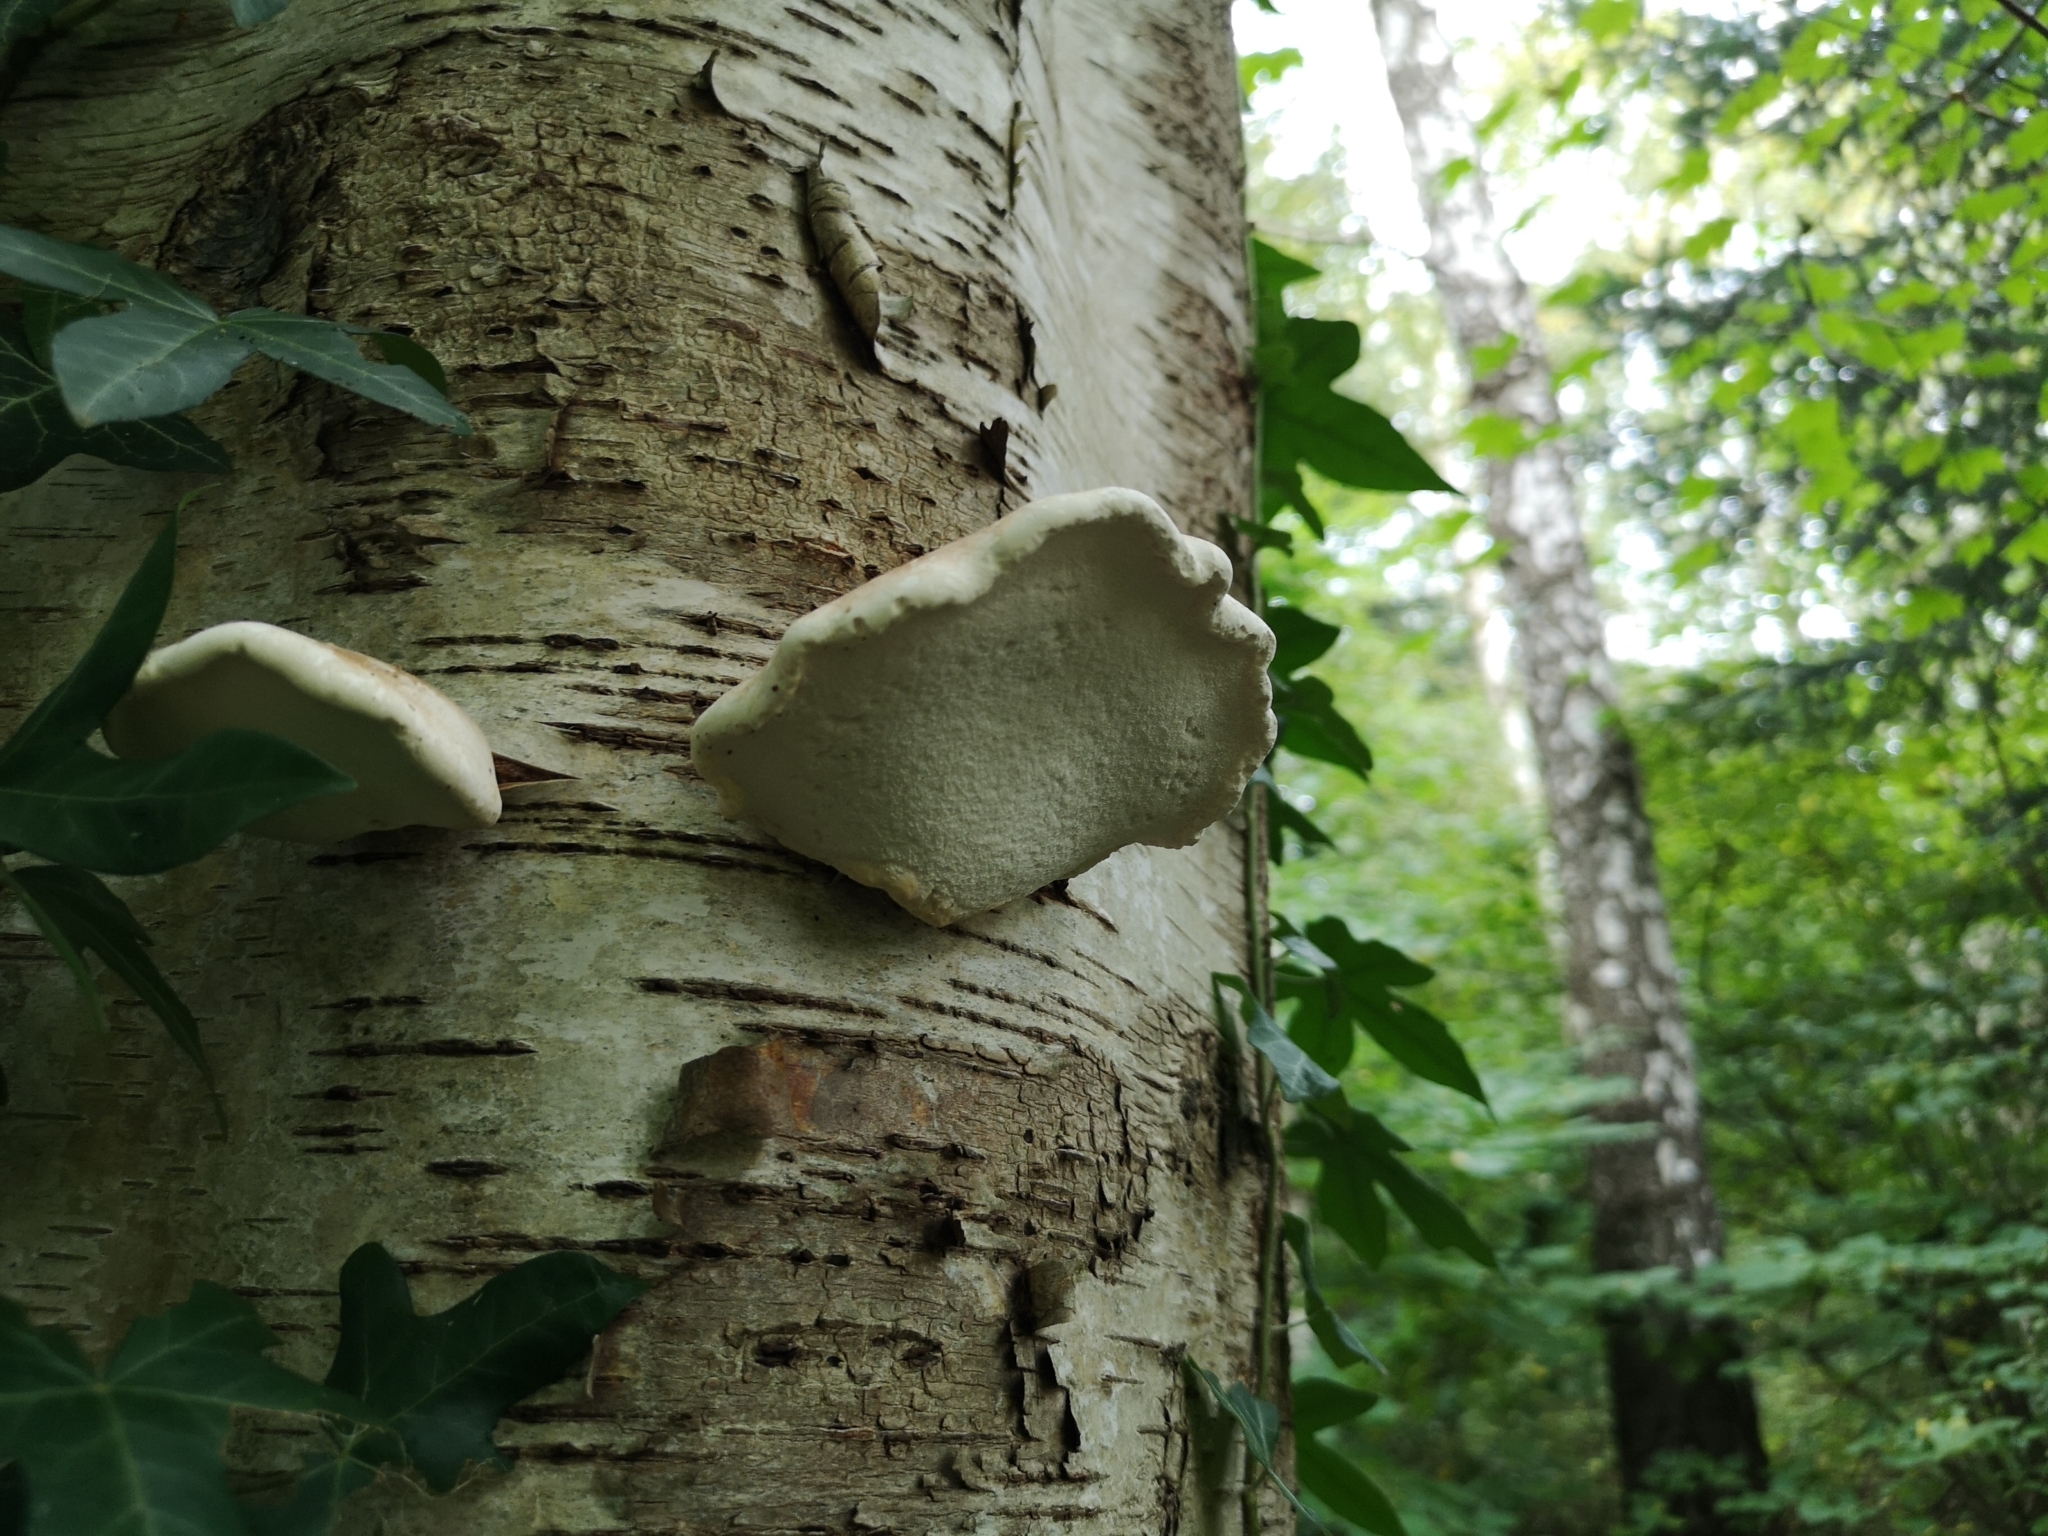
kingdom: Fungi
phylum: Basidiomycota
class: Agaricomycetes
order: Polyporales
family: Fomitopsidaceae
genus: Fomitopsis
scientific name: Fomitopsis betulina
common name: Birch polypore
